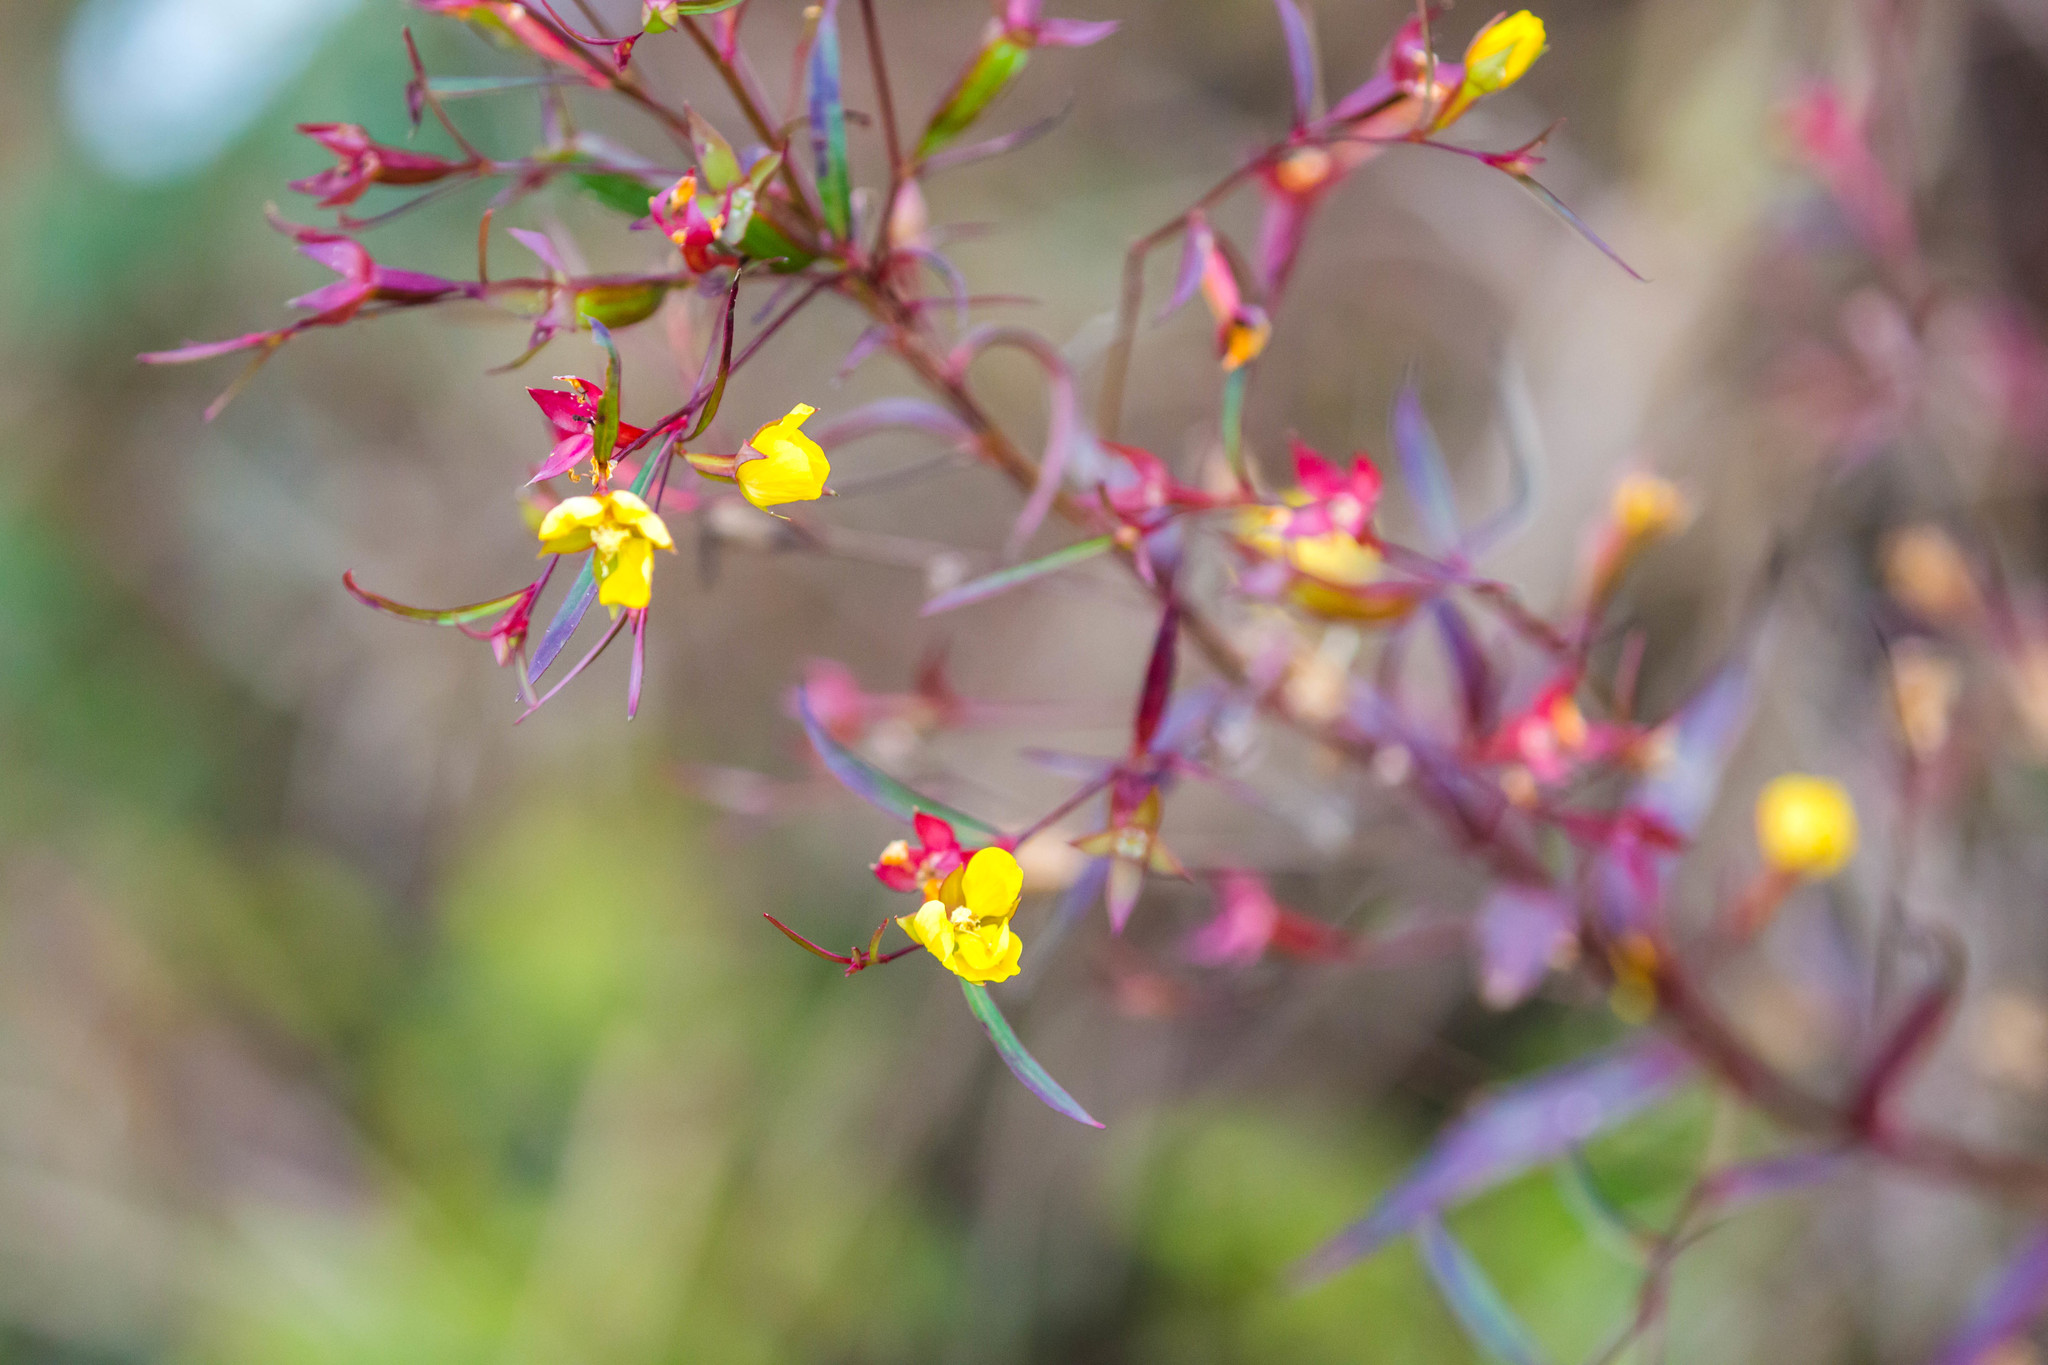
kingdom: Plantae
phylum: Tracheophyta
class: Magnoliopsida
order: Myrtales
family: Onagraceae
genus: Ludwigia
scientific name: Ludwigia linearis
